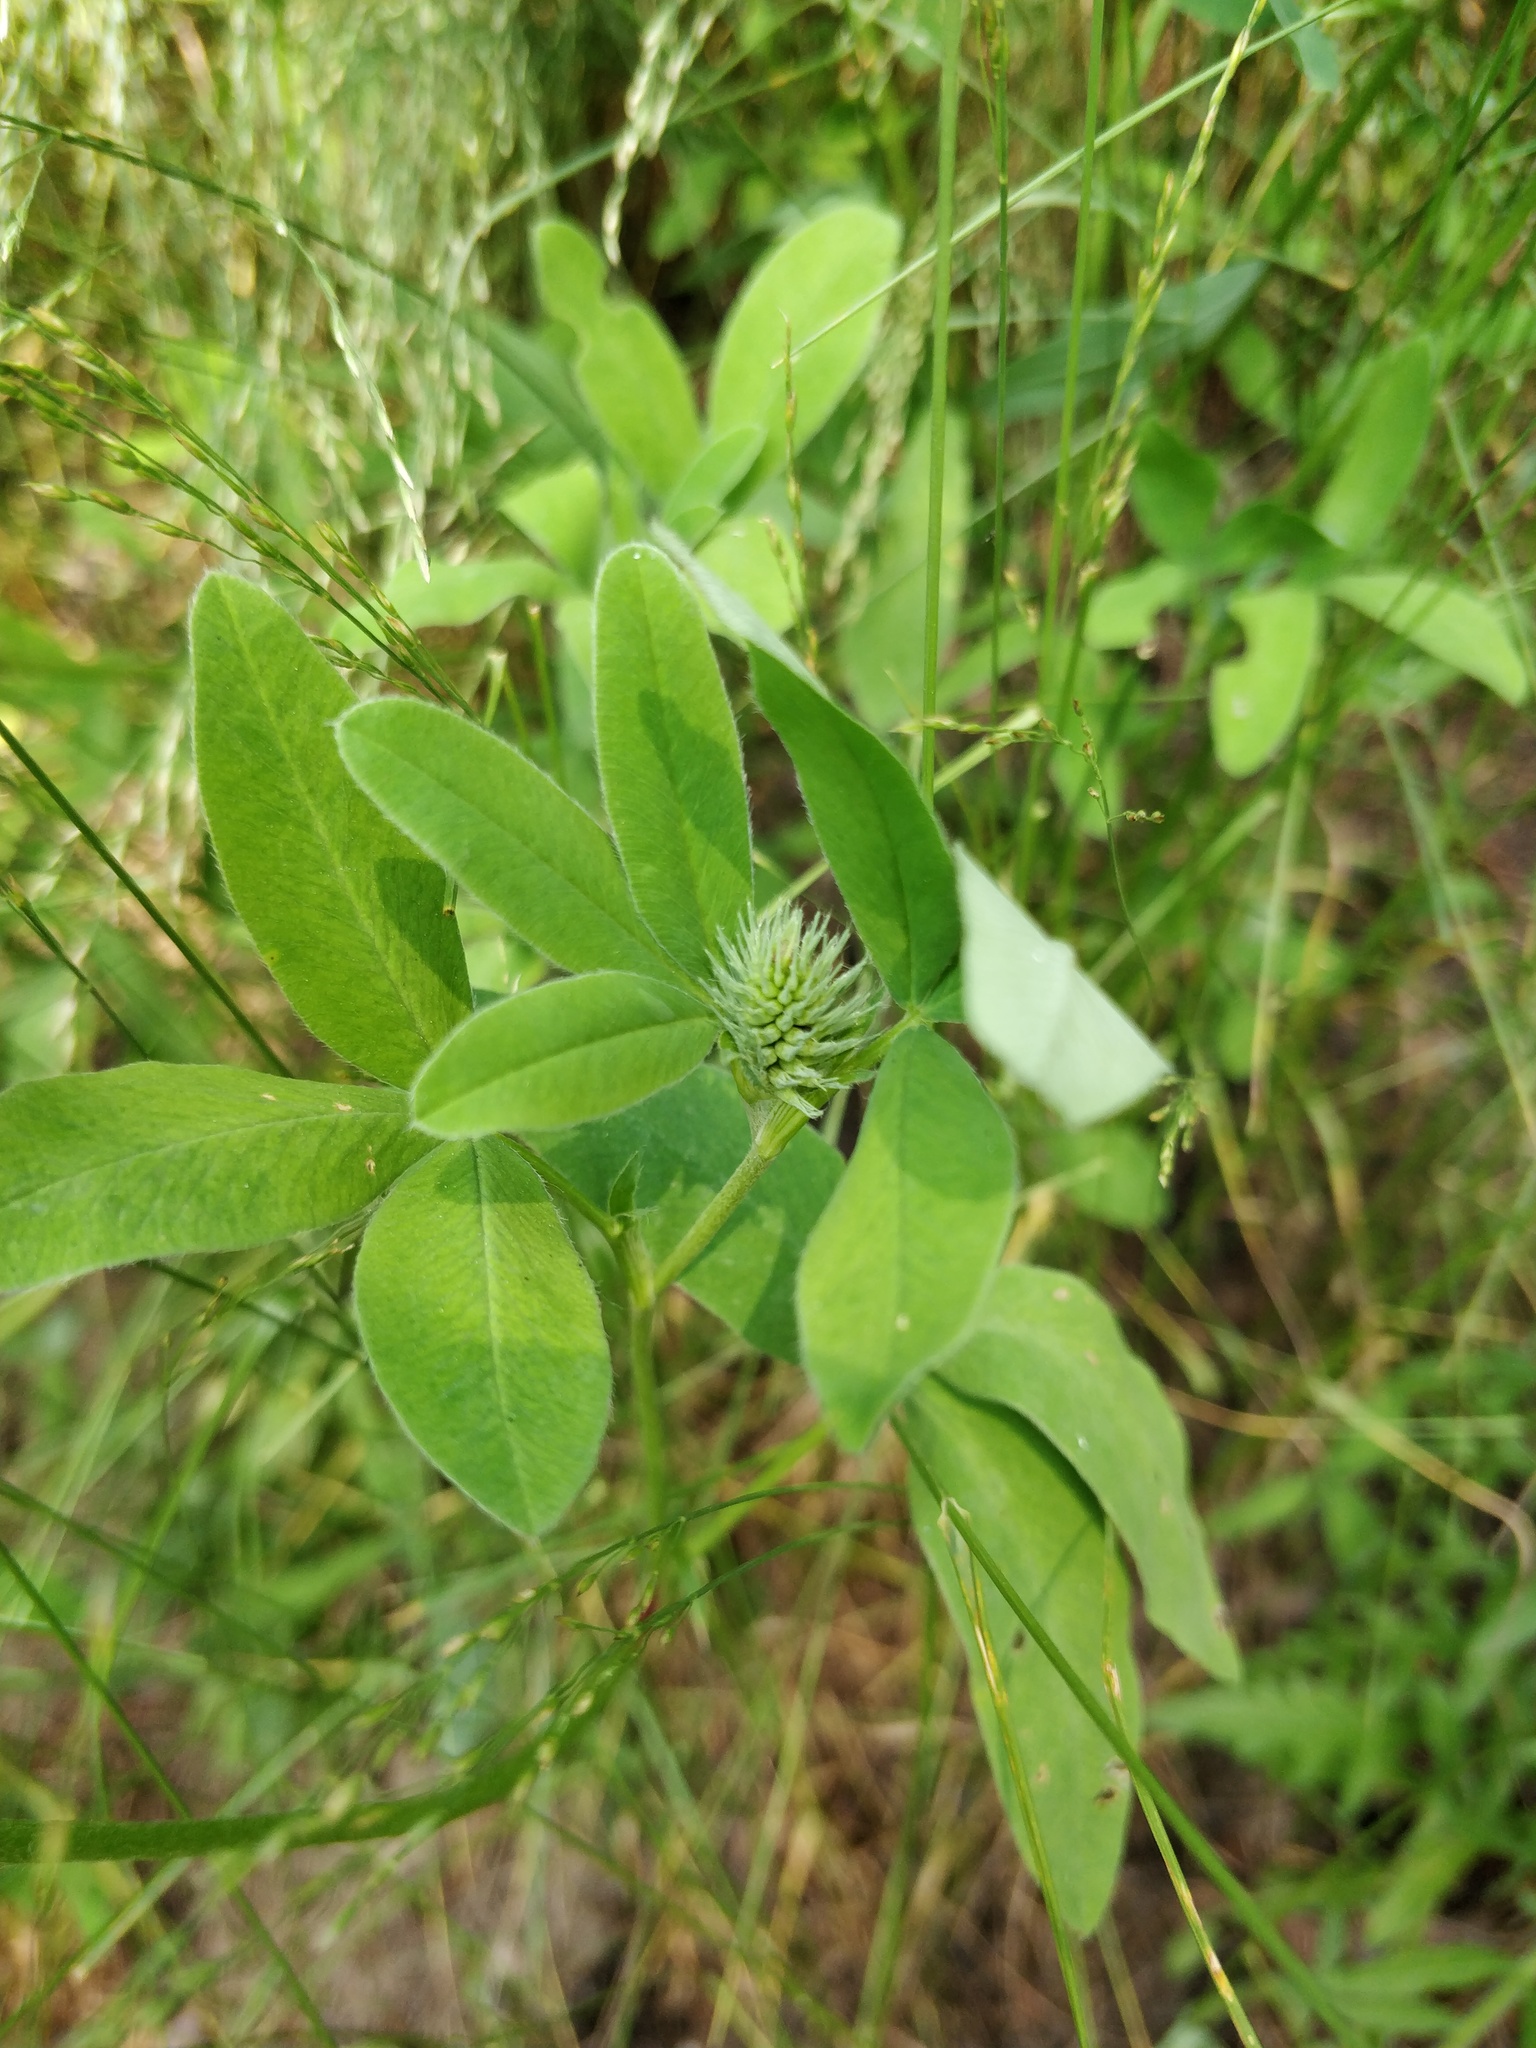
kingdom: Plantae
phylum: Tracheophyta
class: Magnoliopsida
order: Fabales
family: Fabaceae
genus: Trifolium
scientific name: Trifolium medium
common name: Zigzag clover
